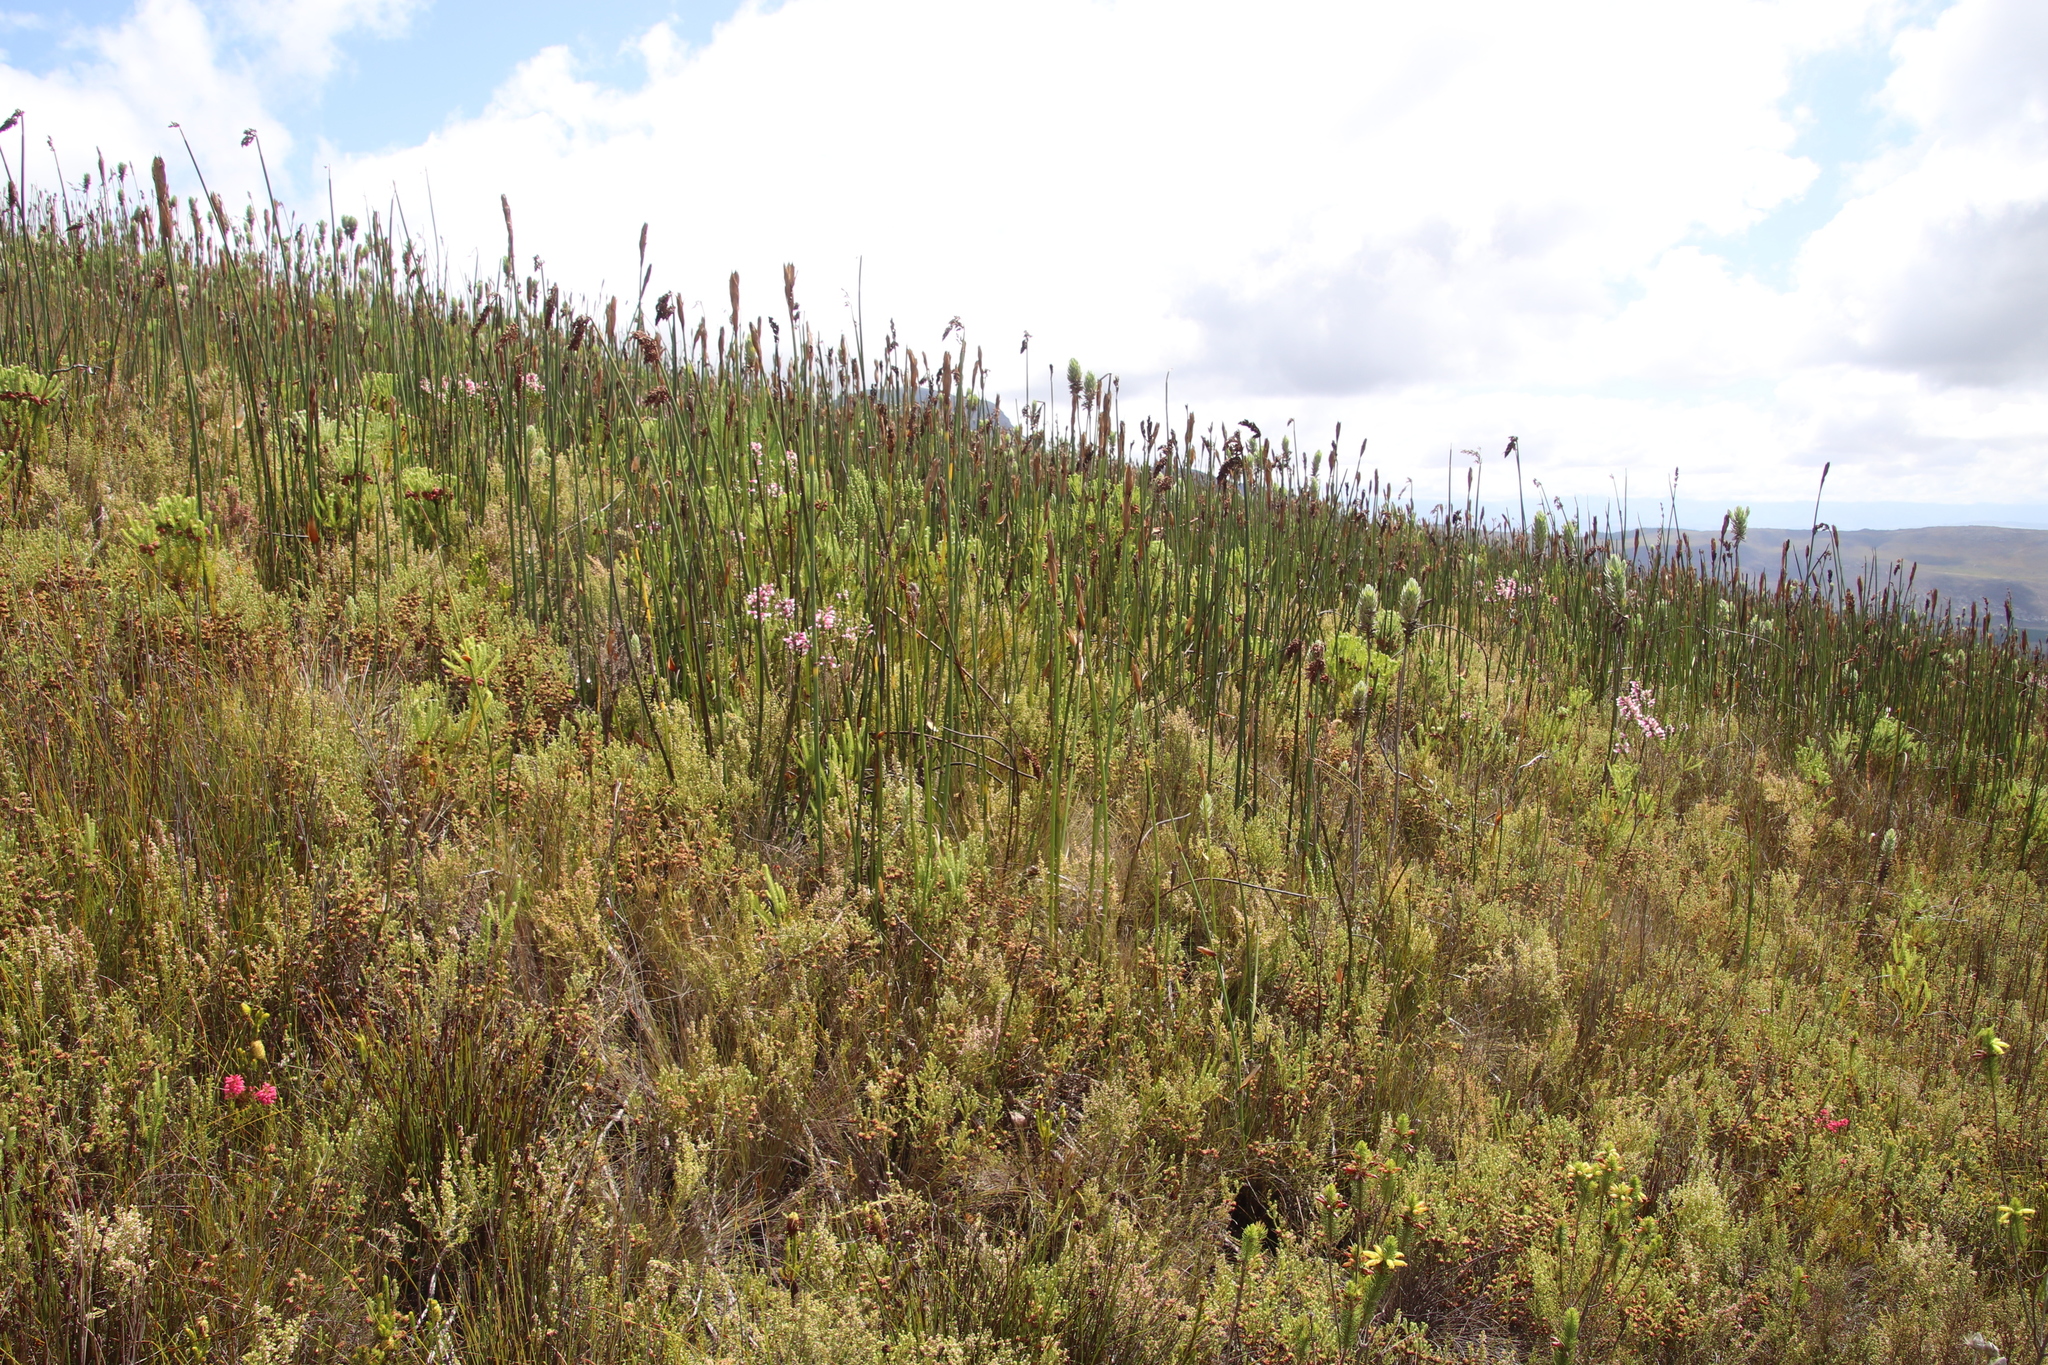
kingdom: Plantae
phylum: Tracheophyta
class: Liliopsida
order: Poales
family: Restionaceae
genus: Elegia
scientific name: Elegia mucronata
